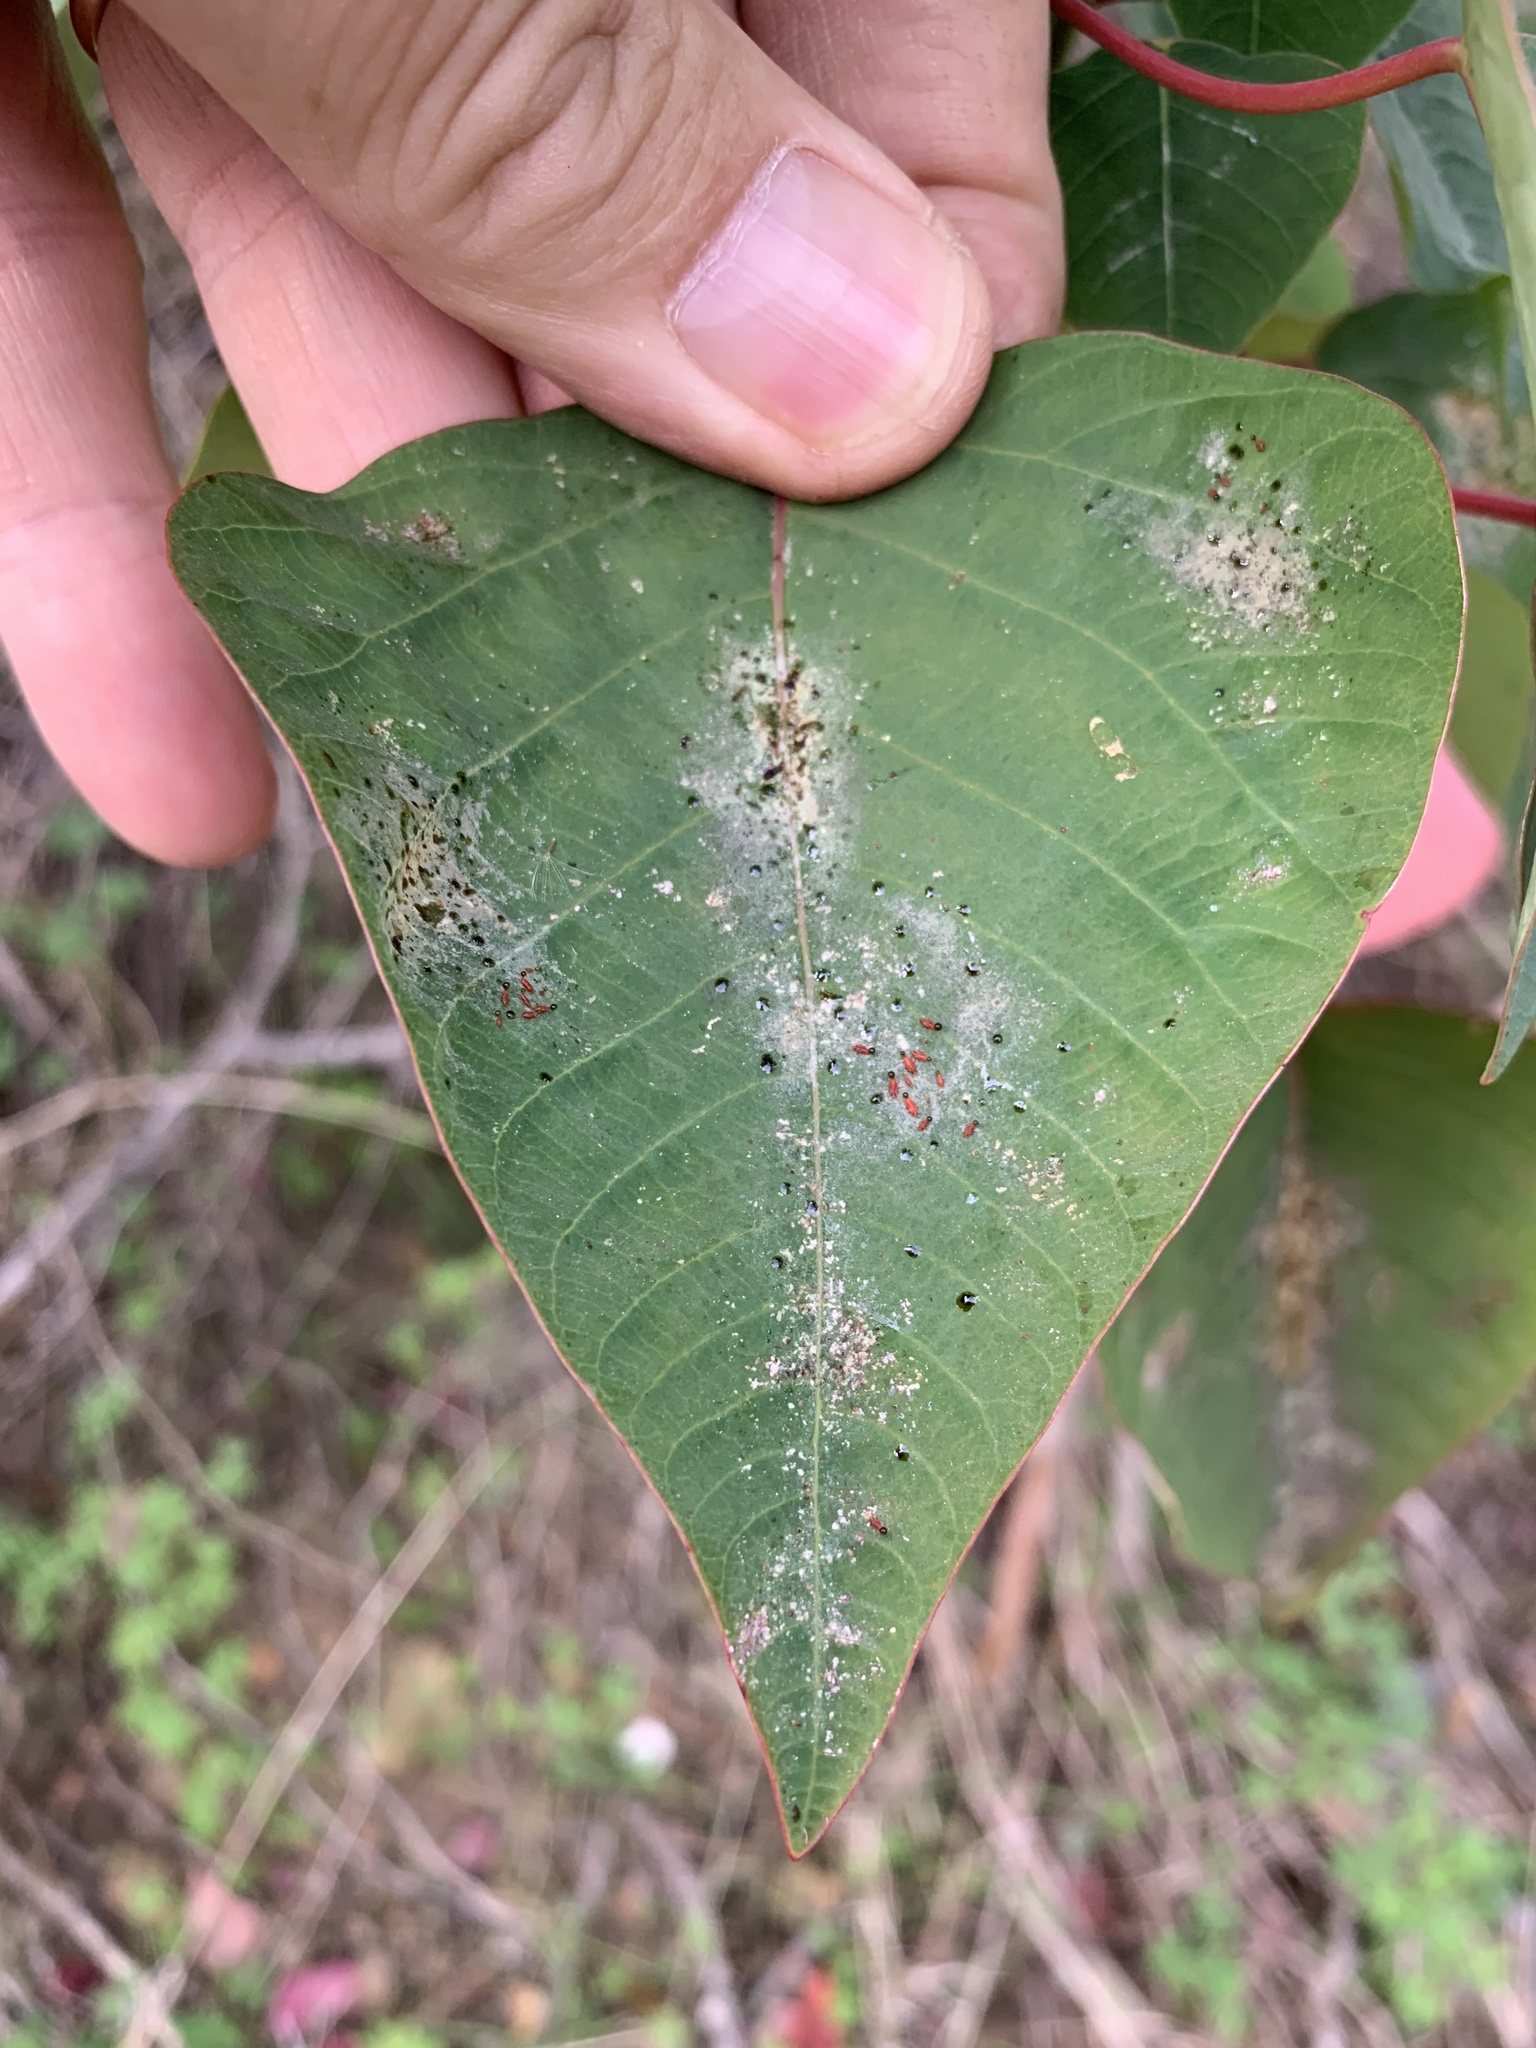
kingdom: Plantae
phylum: Tracheophyta
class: Magnoliopsida
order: Malpighiales
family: Euphorbiaceae
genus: Homalanthus
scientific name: Homalanthus populifolius
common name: Queensland poplar
